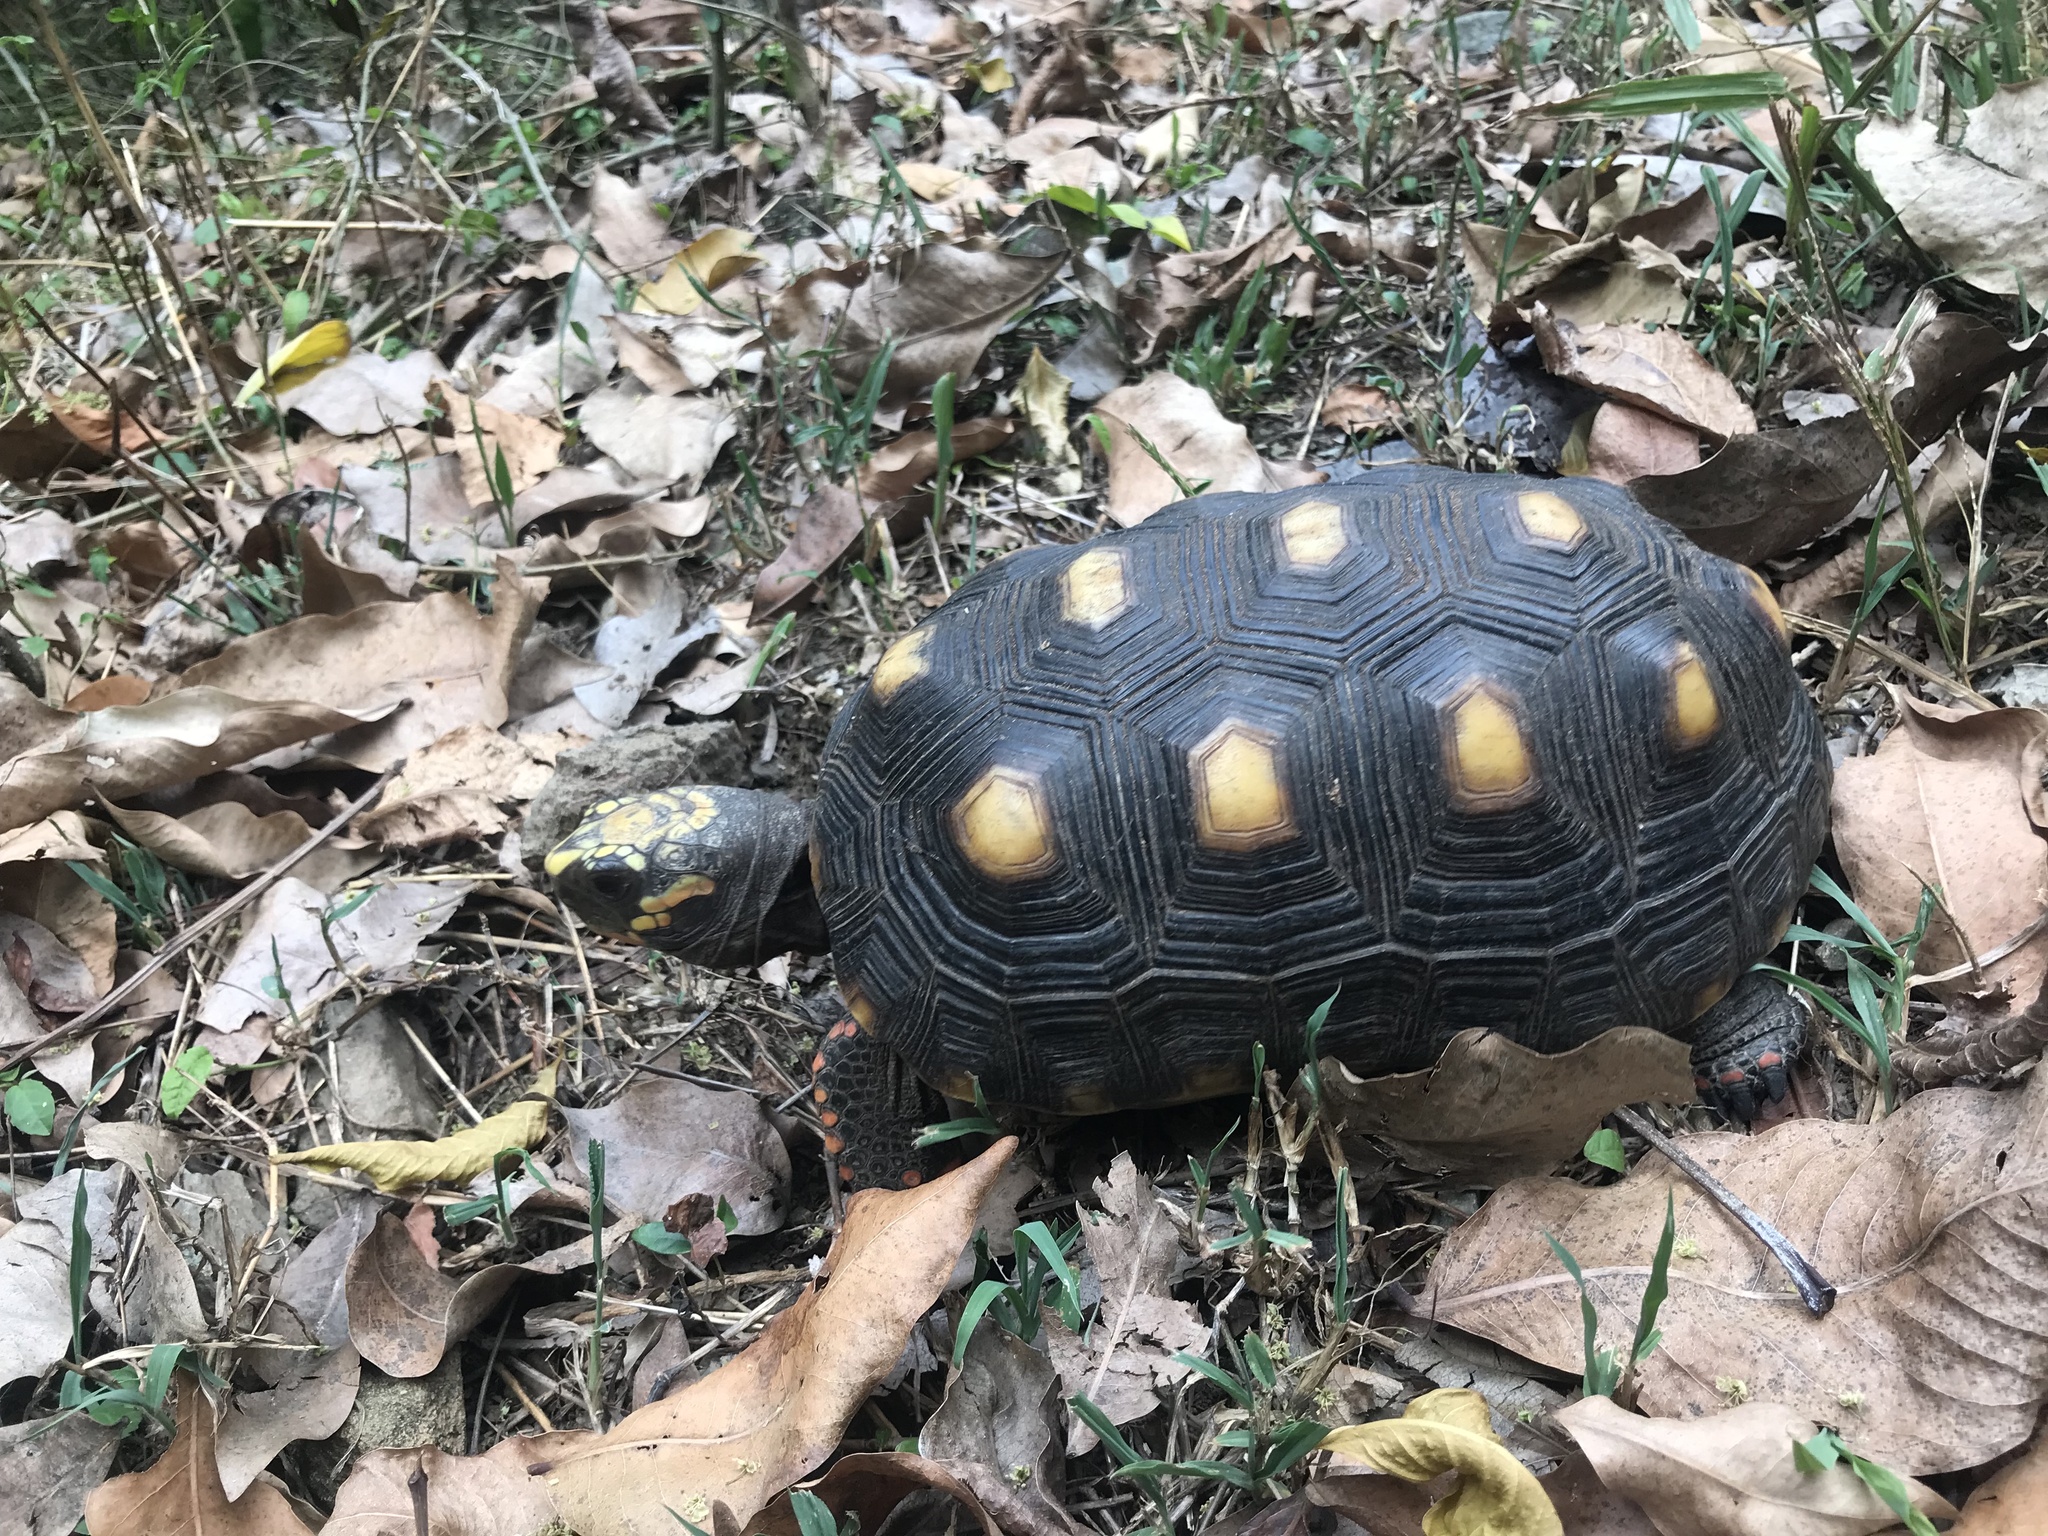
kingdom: Animalia
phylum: Chordata
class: Testudines
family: Testudinidae
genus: Chelonoidis
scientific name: Chelonoidis carbonarius
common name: Red-footed tortoise
